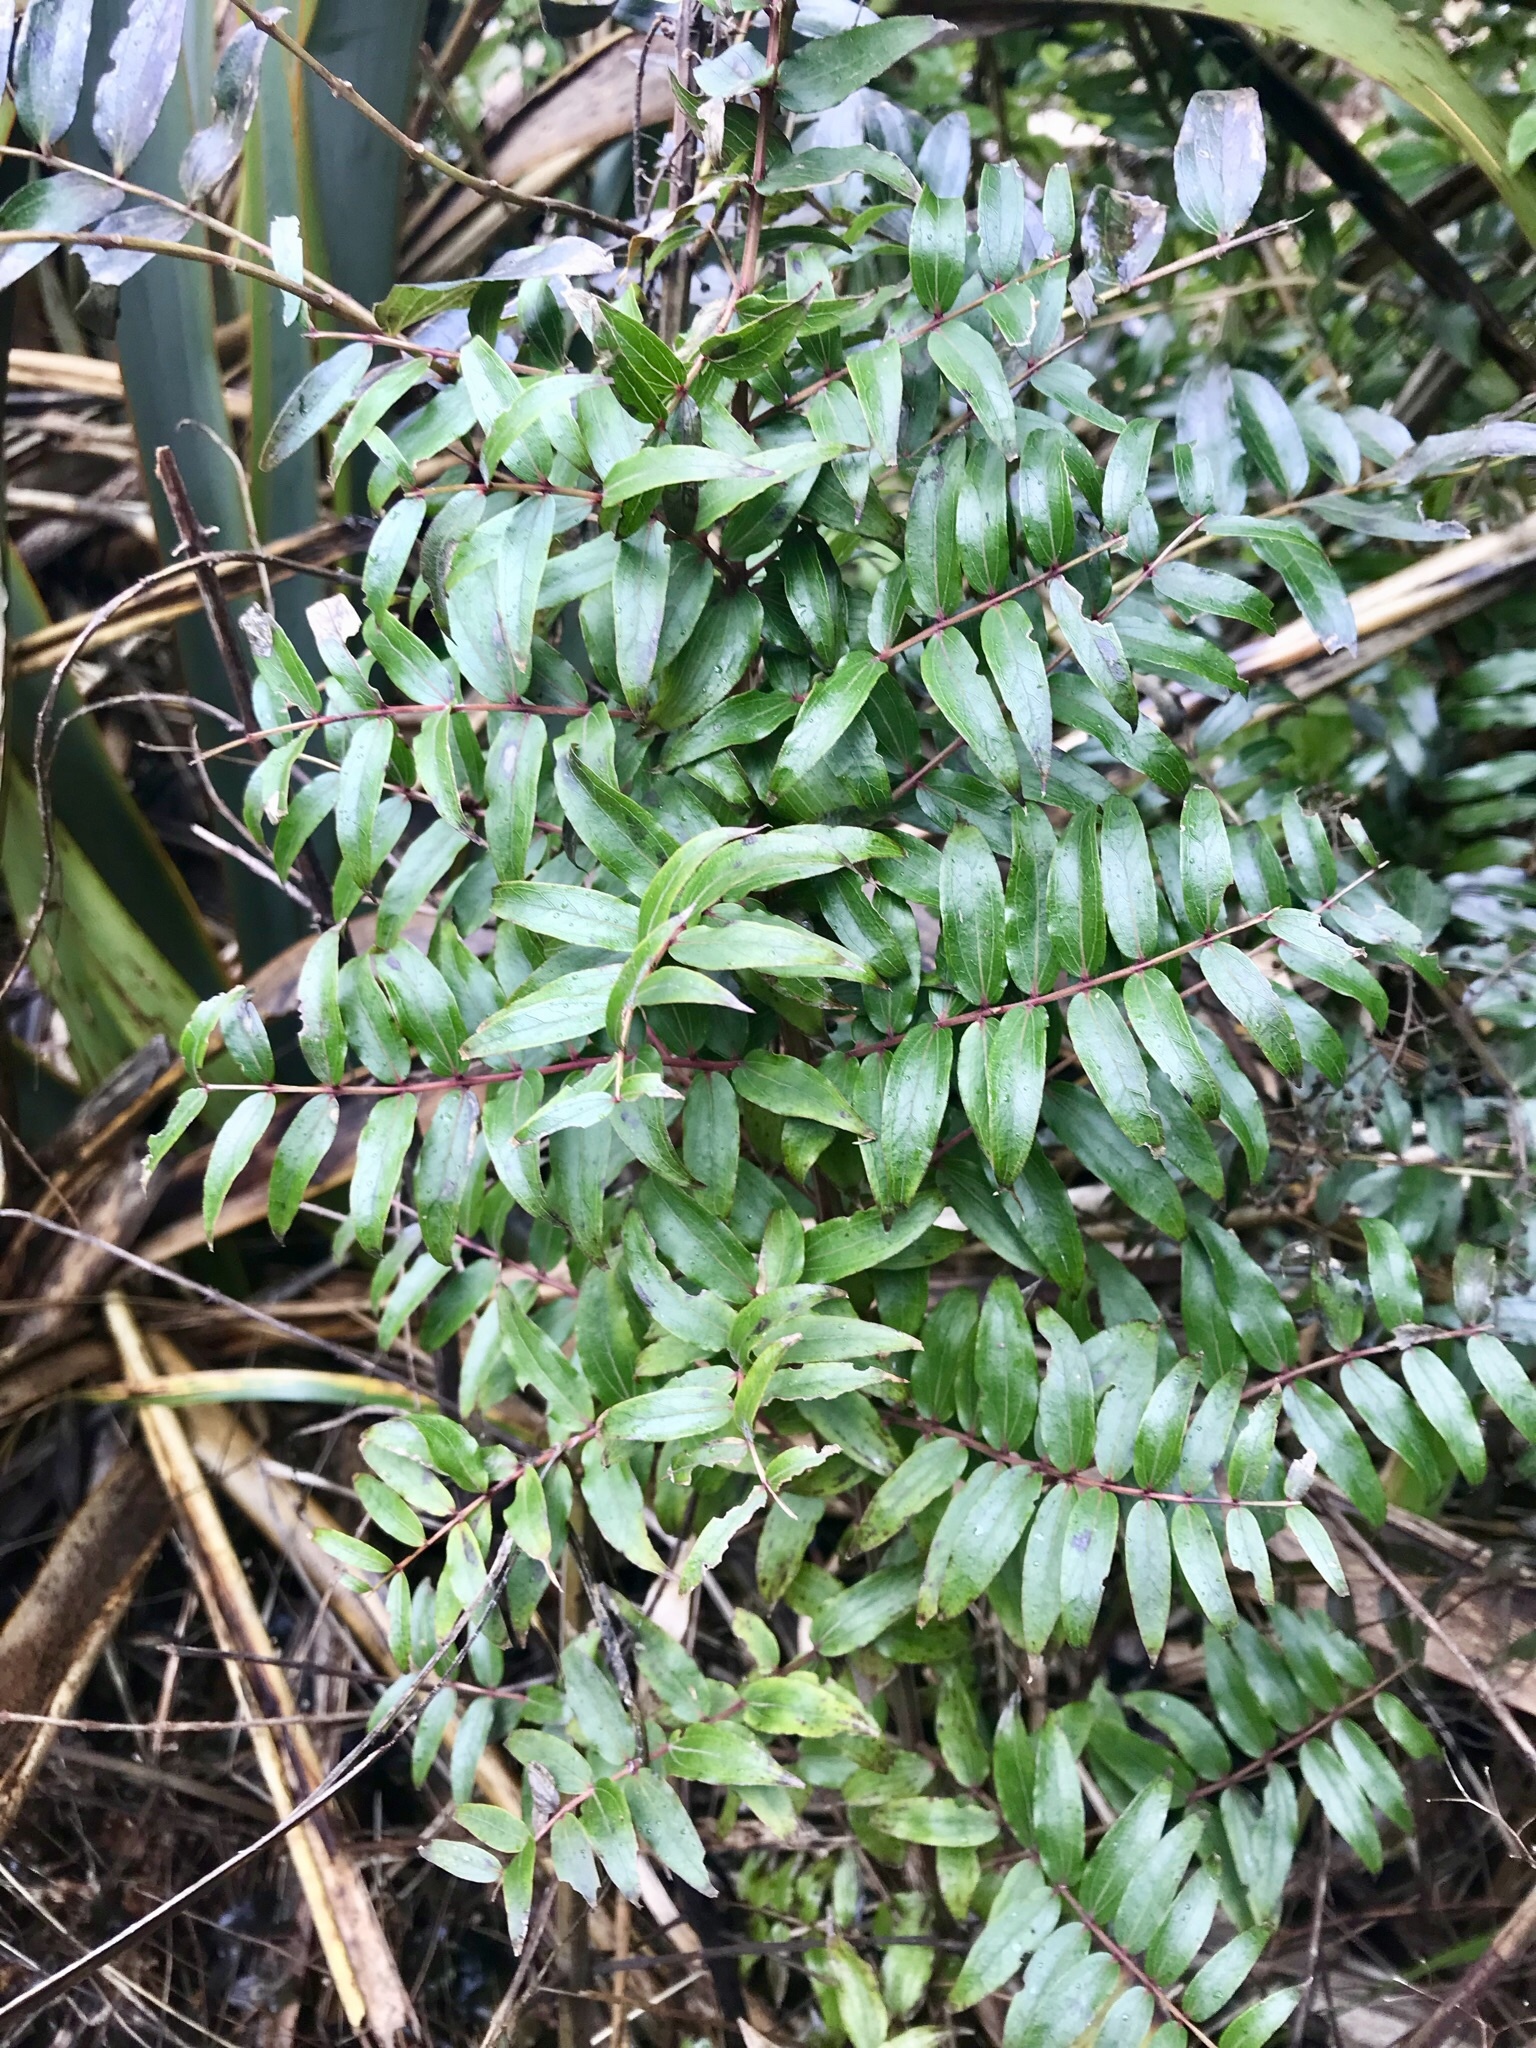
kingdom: Plantae
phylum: Tracheophyta
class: Magnoliopsida
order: Cucurbitales
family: Coriariaceae
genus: Coriaria
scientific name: Coriaria pteridoides
